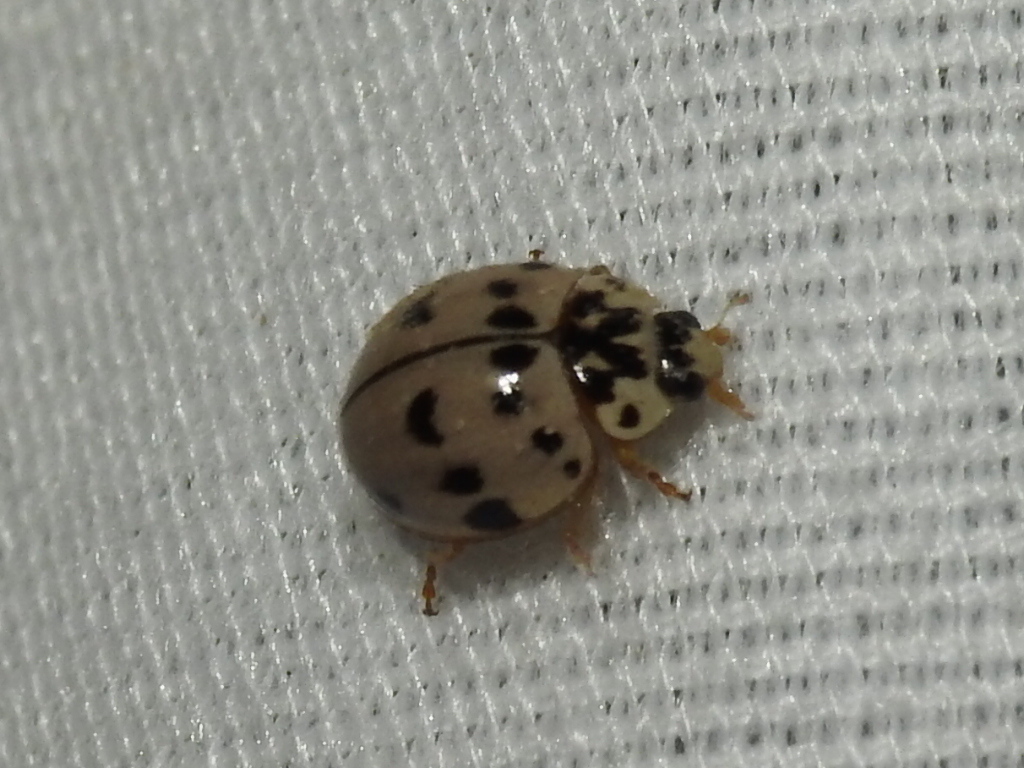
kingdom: Animalia
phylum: Arthropoda
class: Insecta
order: Coleoptera
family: Coccinellidae
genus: Olla
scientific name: Olla v-nigrum
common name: Ashy gray lady beetle
